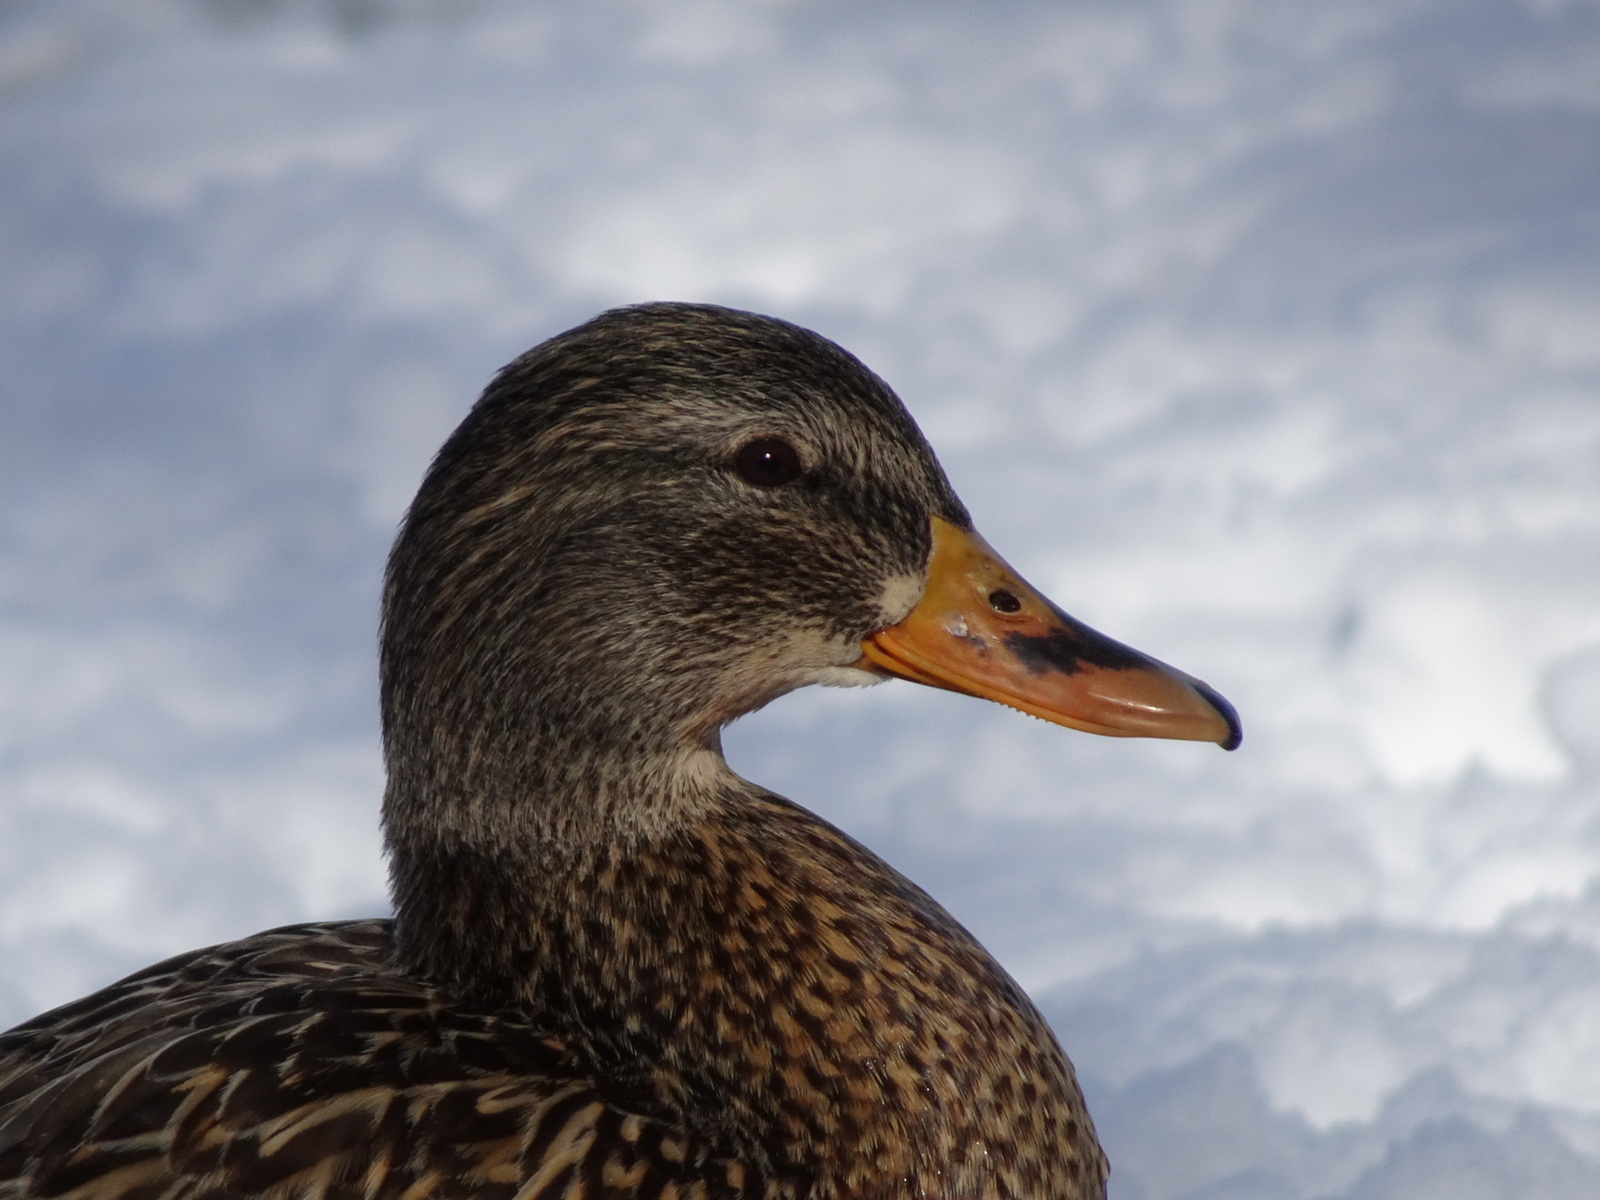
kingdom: Animalia
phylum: Chordata
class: Aves
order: Anseriformes
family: Anatidae
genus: Anas
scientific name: Anas platyrhynchos
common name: Mallard
